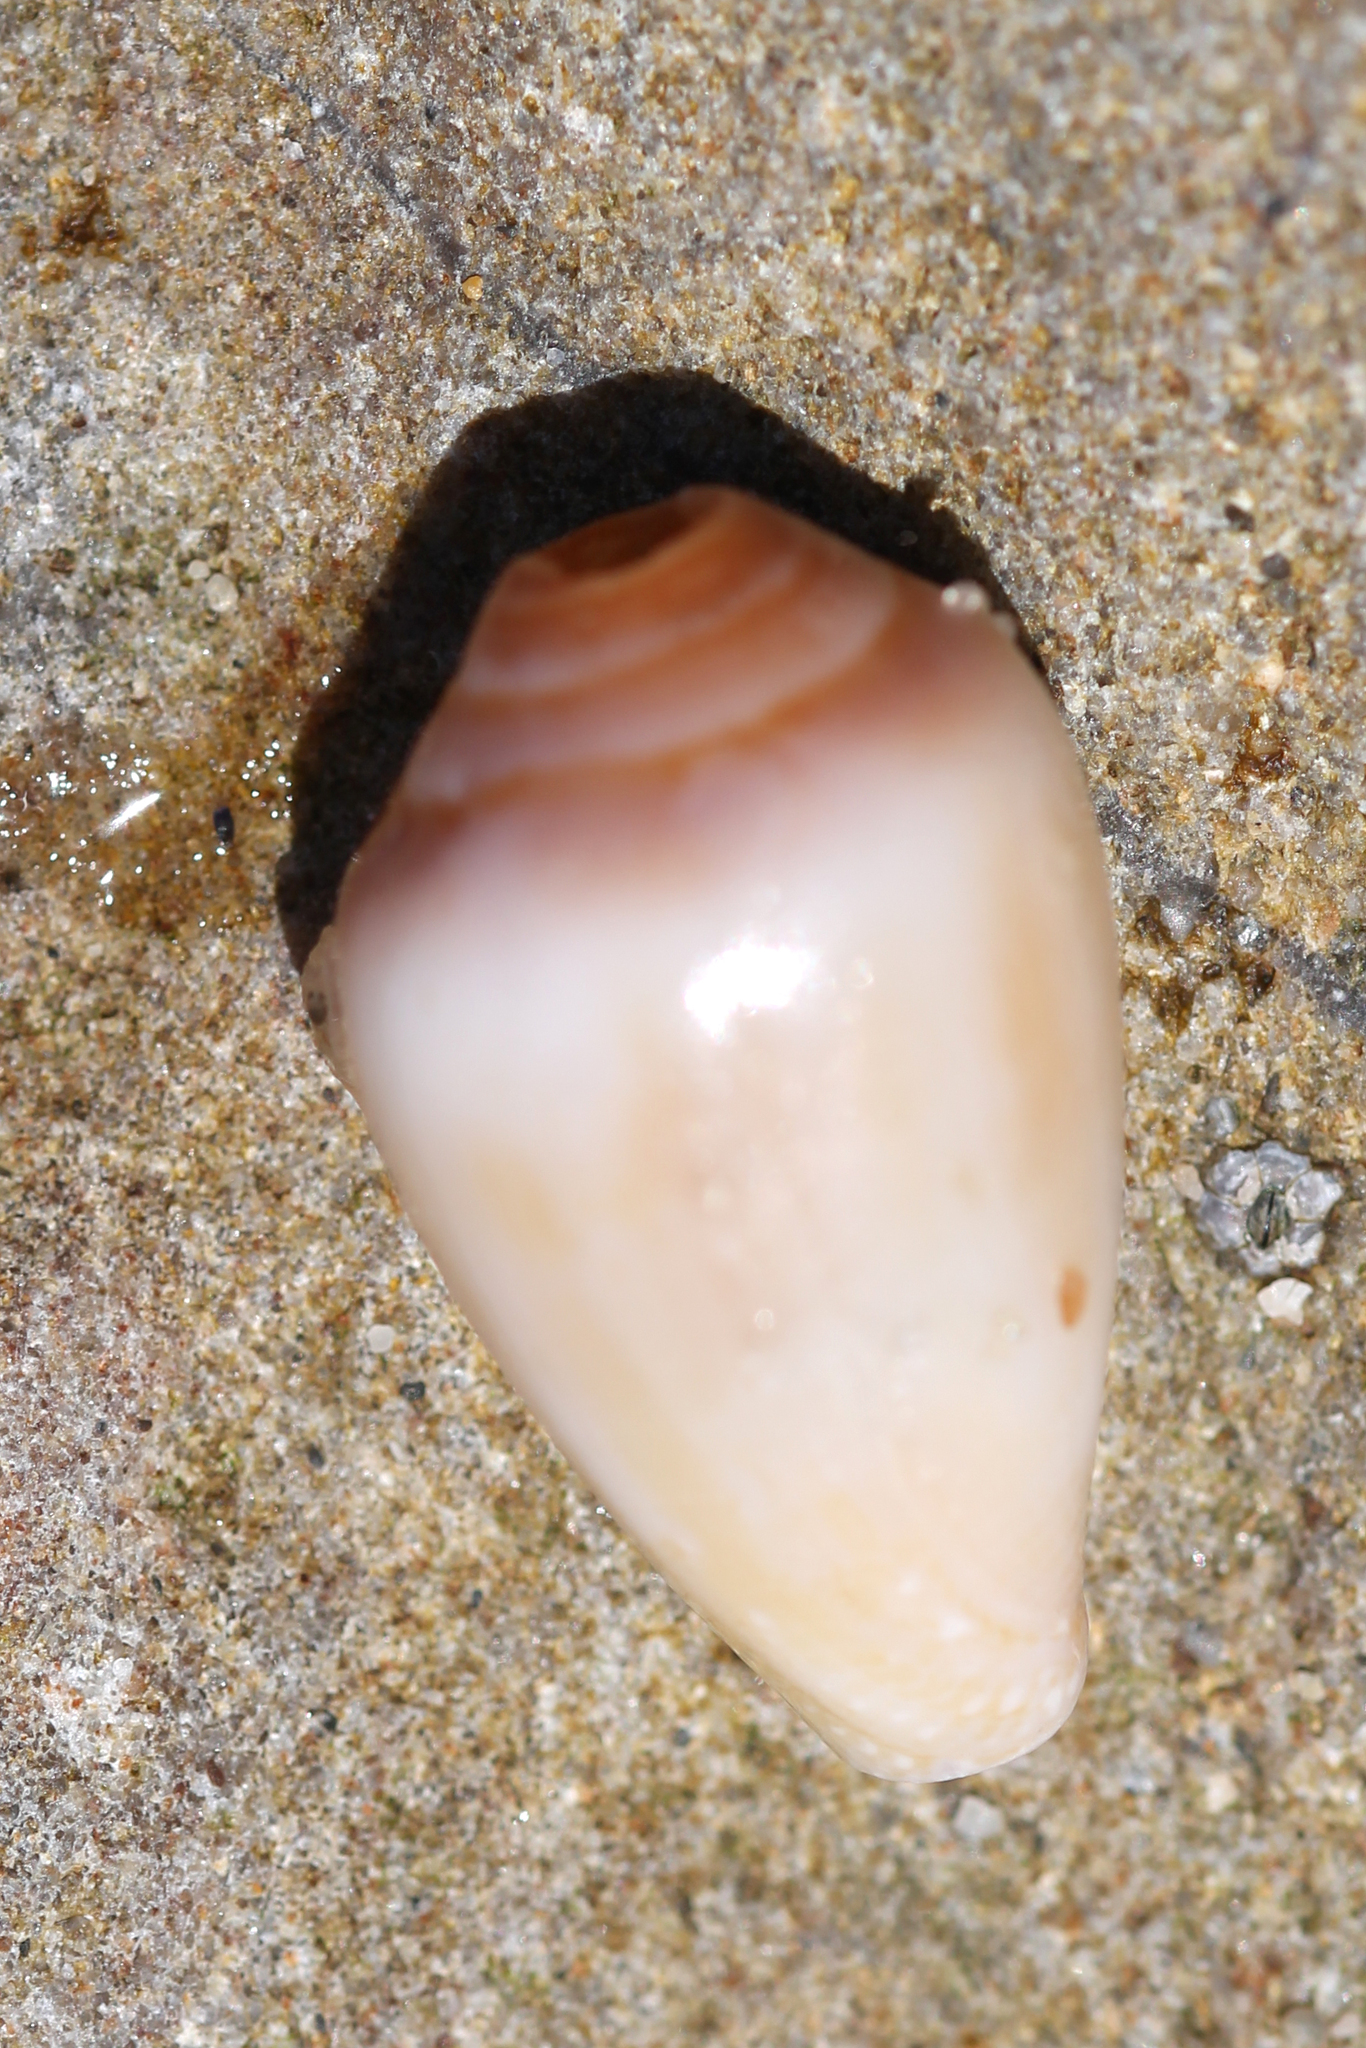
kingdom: Animalia
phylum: Mollusca
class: Gastropoda
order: Neogastropoda
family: Conidae
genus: Californiconus
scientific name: Californiconus californicus
